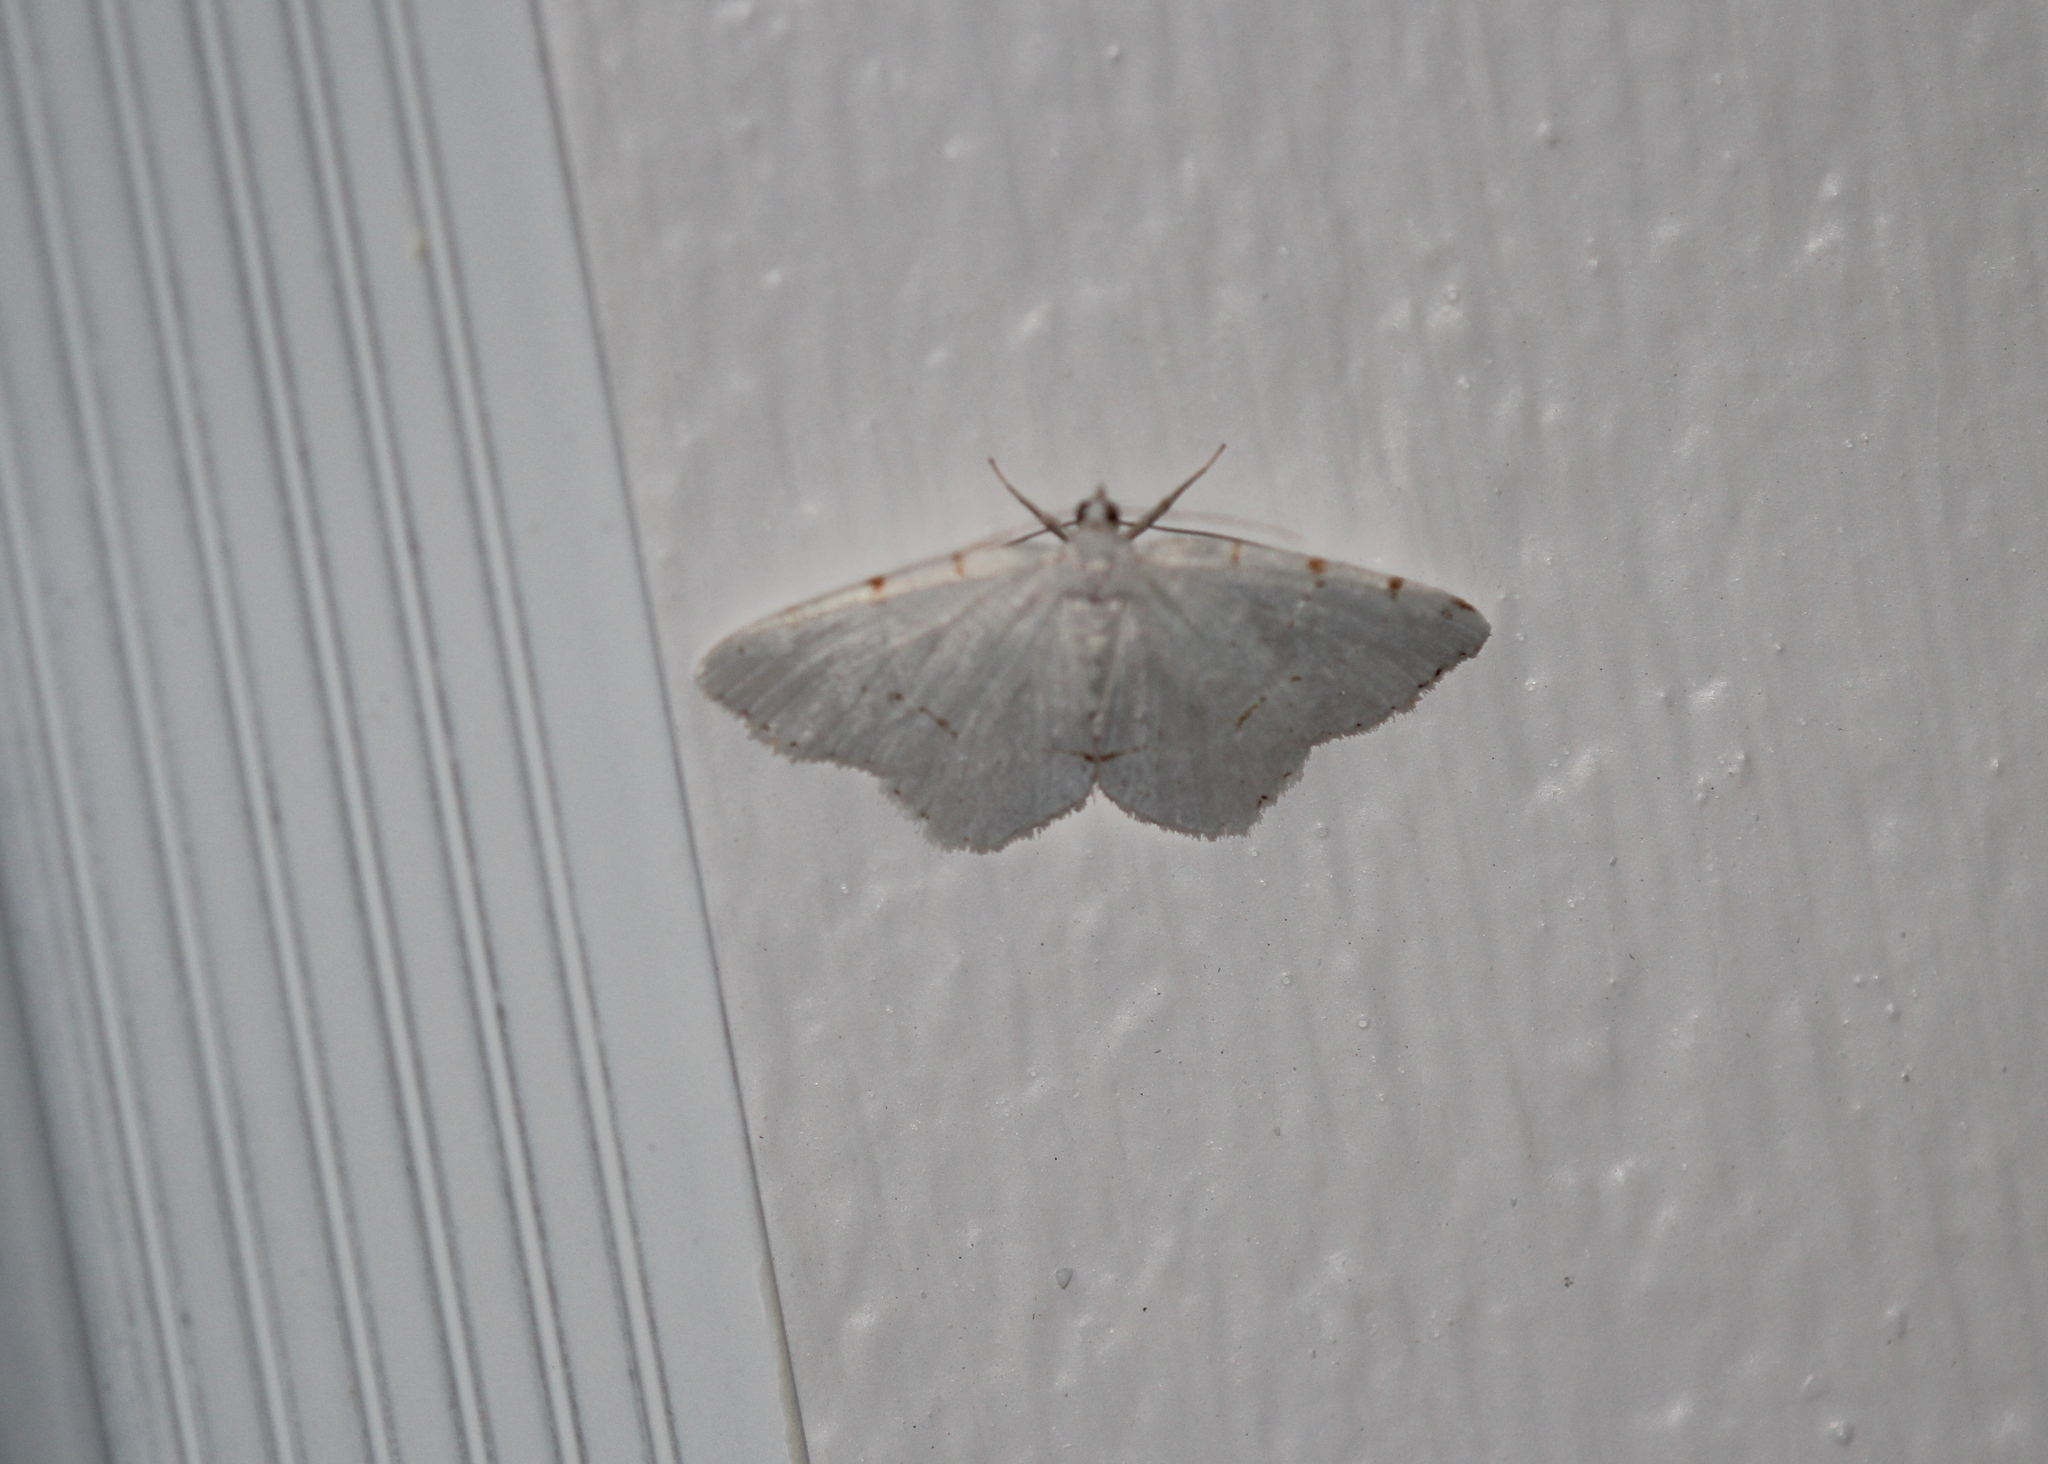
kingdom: Animalia
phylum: Arthropoda
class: Insecta
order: Lepidoptera
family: Geometridae
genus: Macaria
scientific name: Macaria pustularia
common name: Lesser maple spanworm moth
